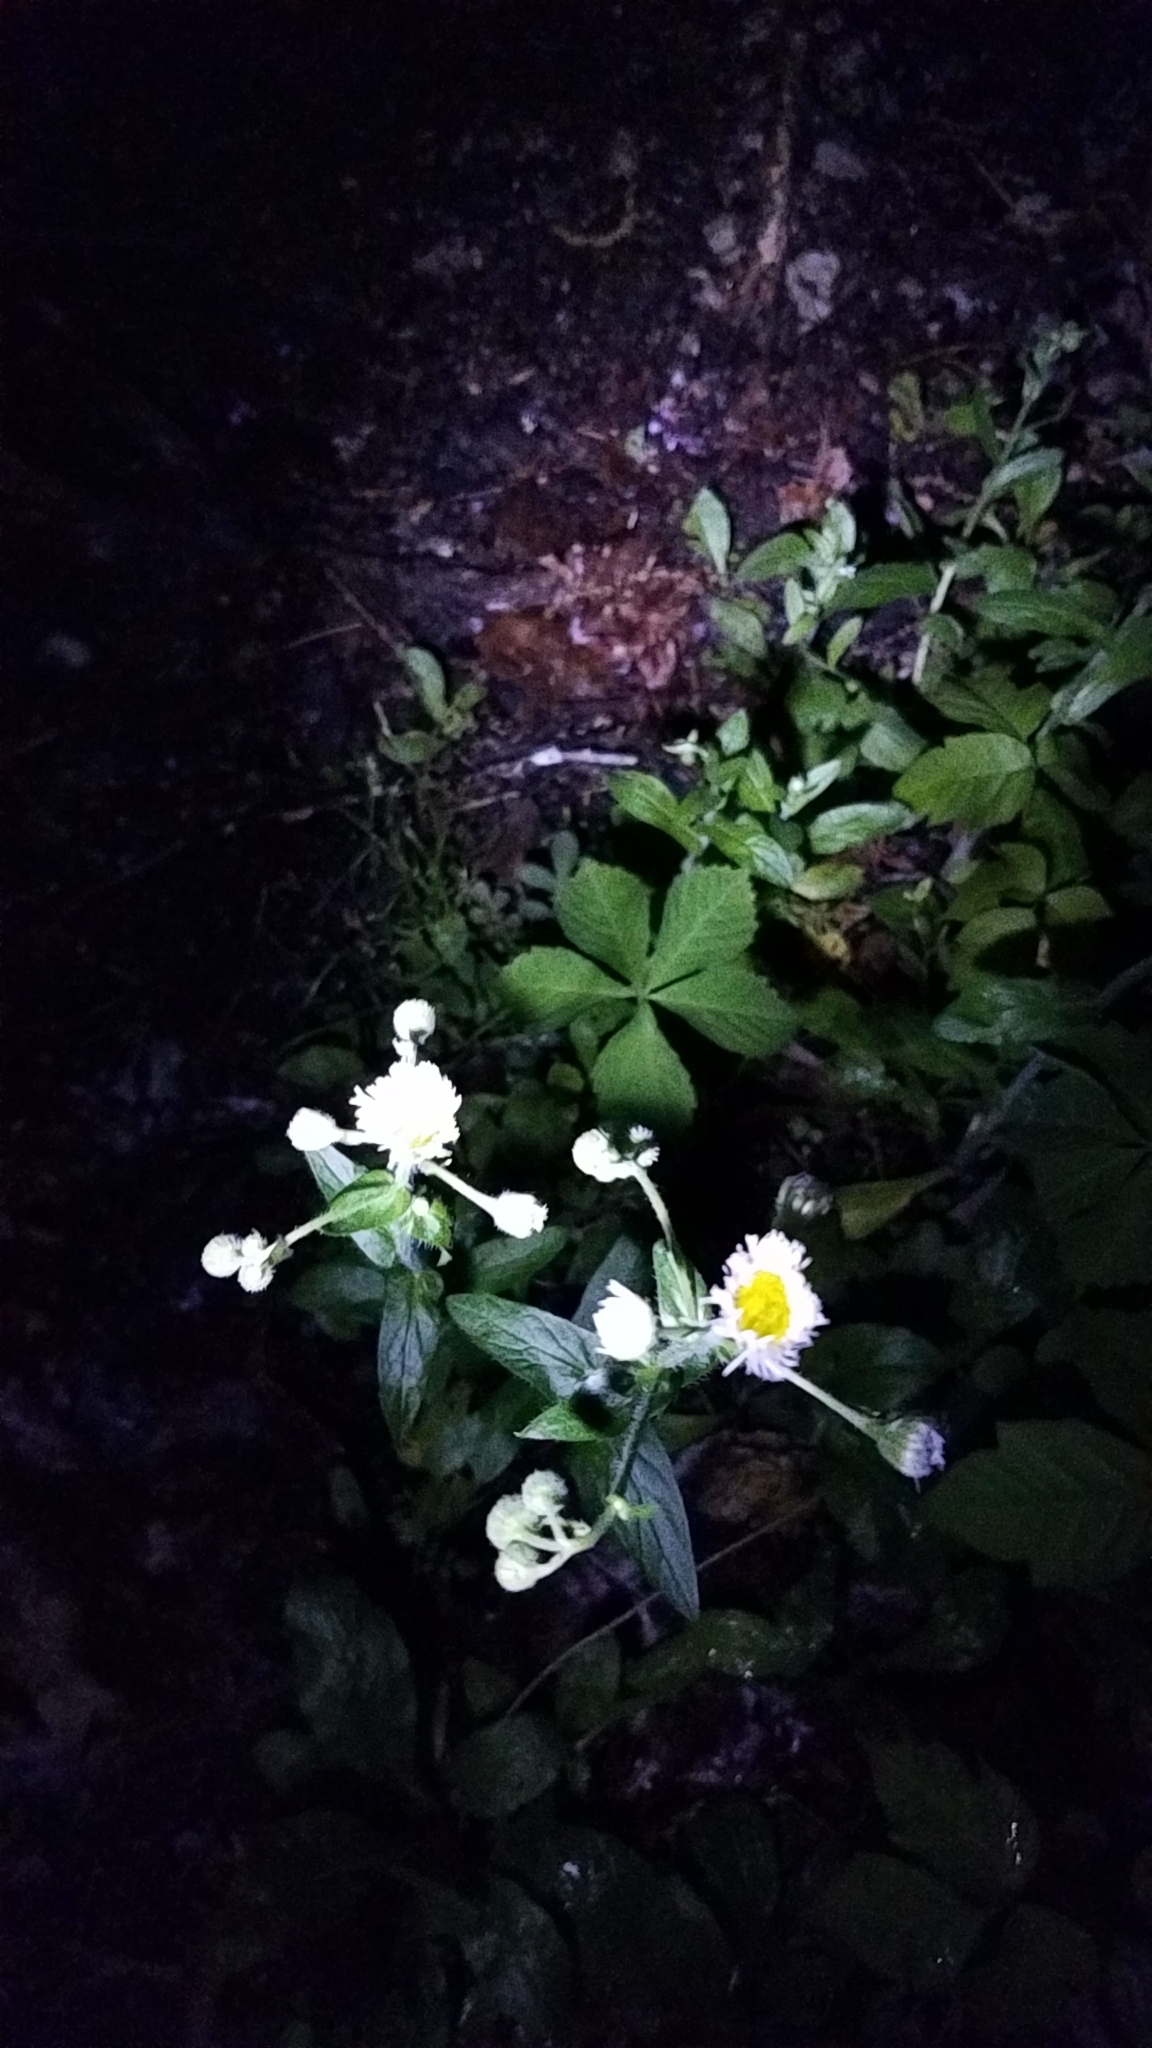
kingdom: Plantae
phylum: Tracheophyta
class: Magnoliopsida
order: Asterales
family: Asteraceae
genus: Erigeron
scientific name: Erigeron philadelphicus
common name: Robin's-plantain
